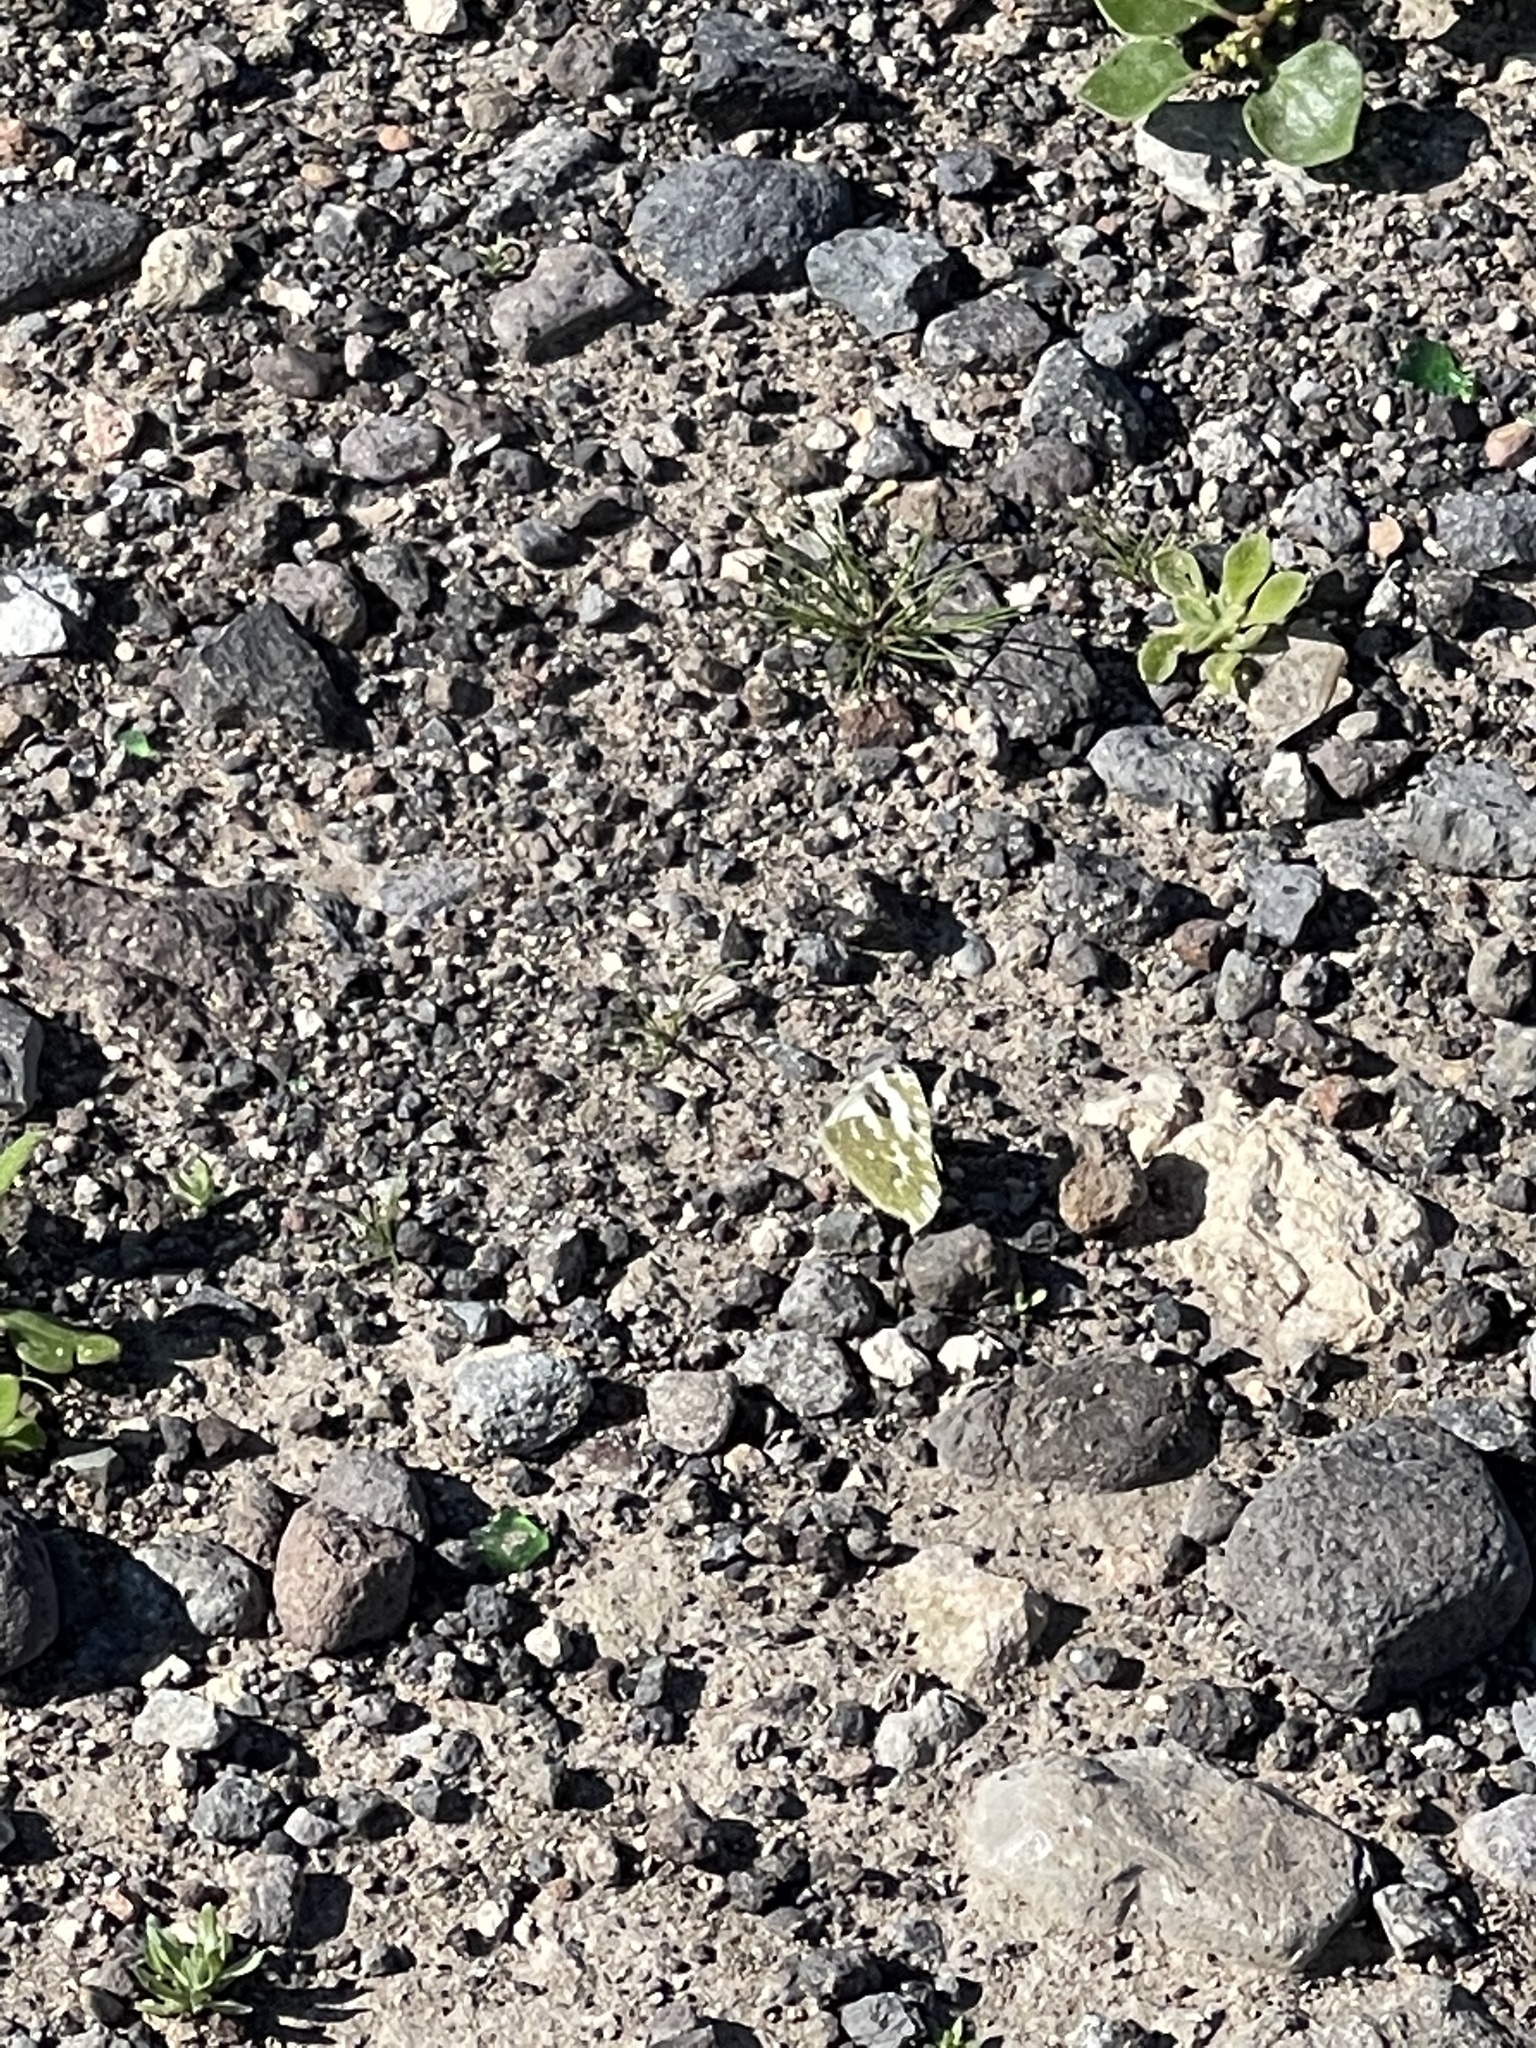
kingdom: Animalia
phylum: Arthropoda
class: Insecta
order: Lepidoptera
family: Pieridae
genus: Pontia
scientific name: Pontia daplidice
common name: Bath white
